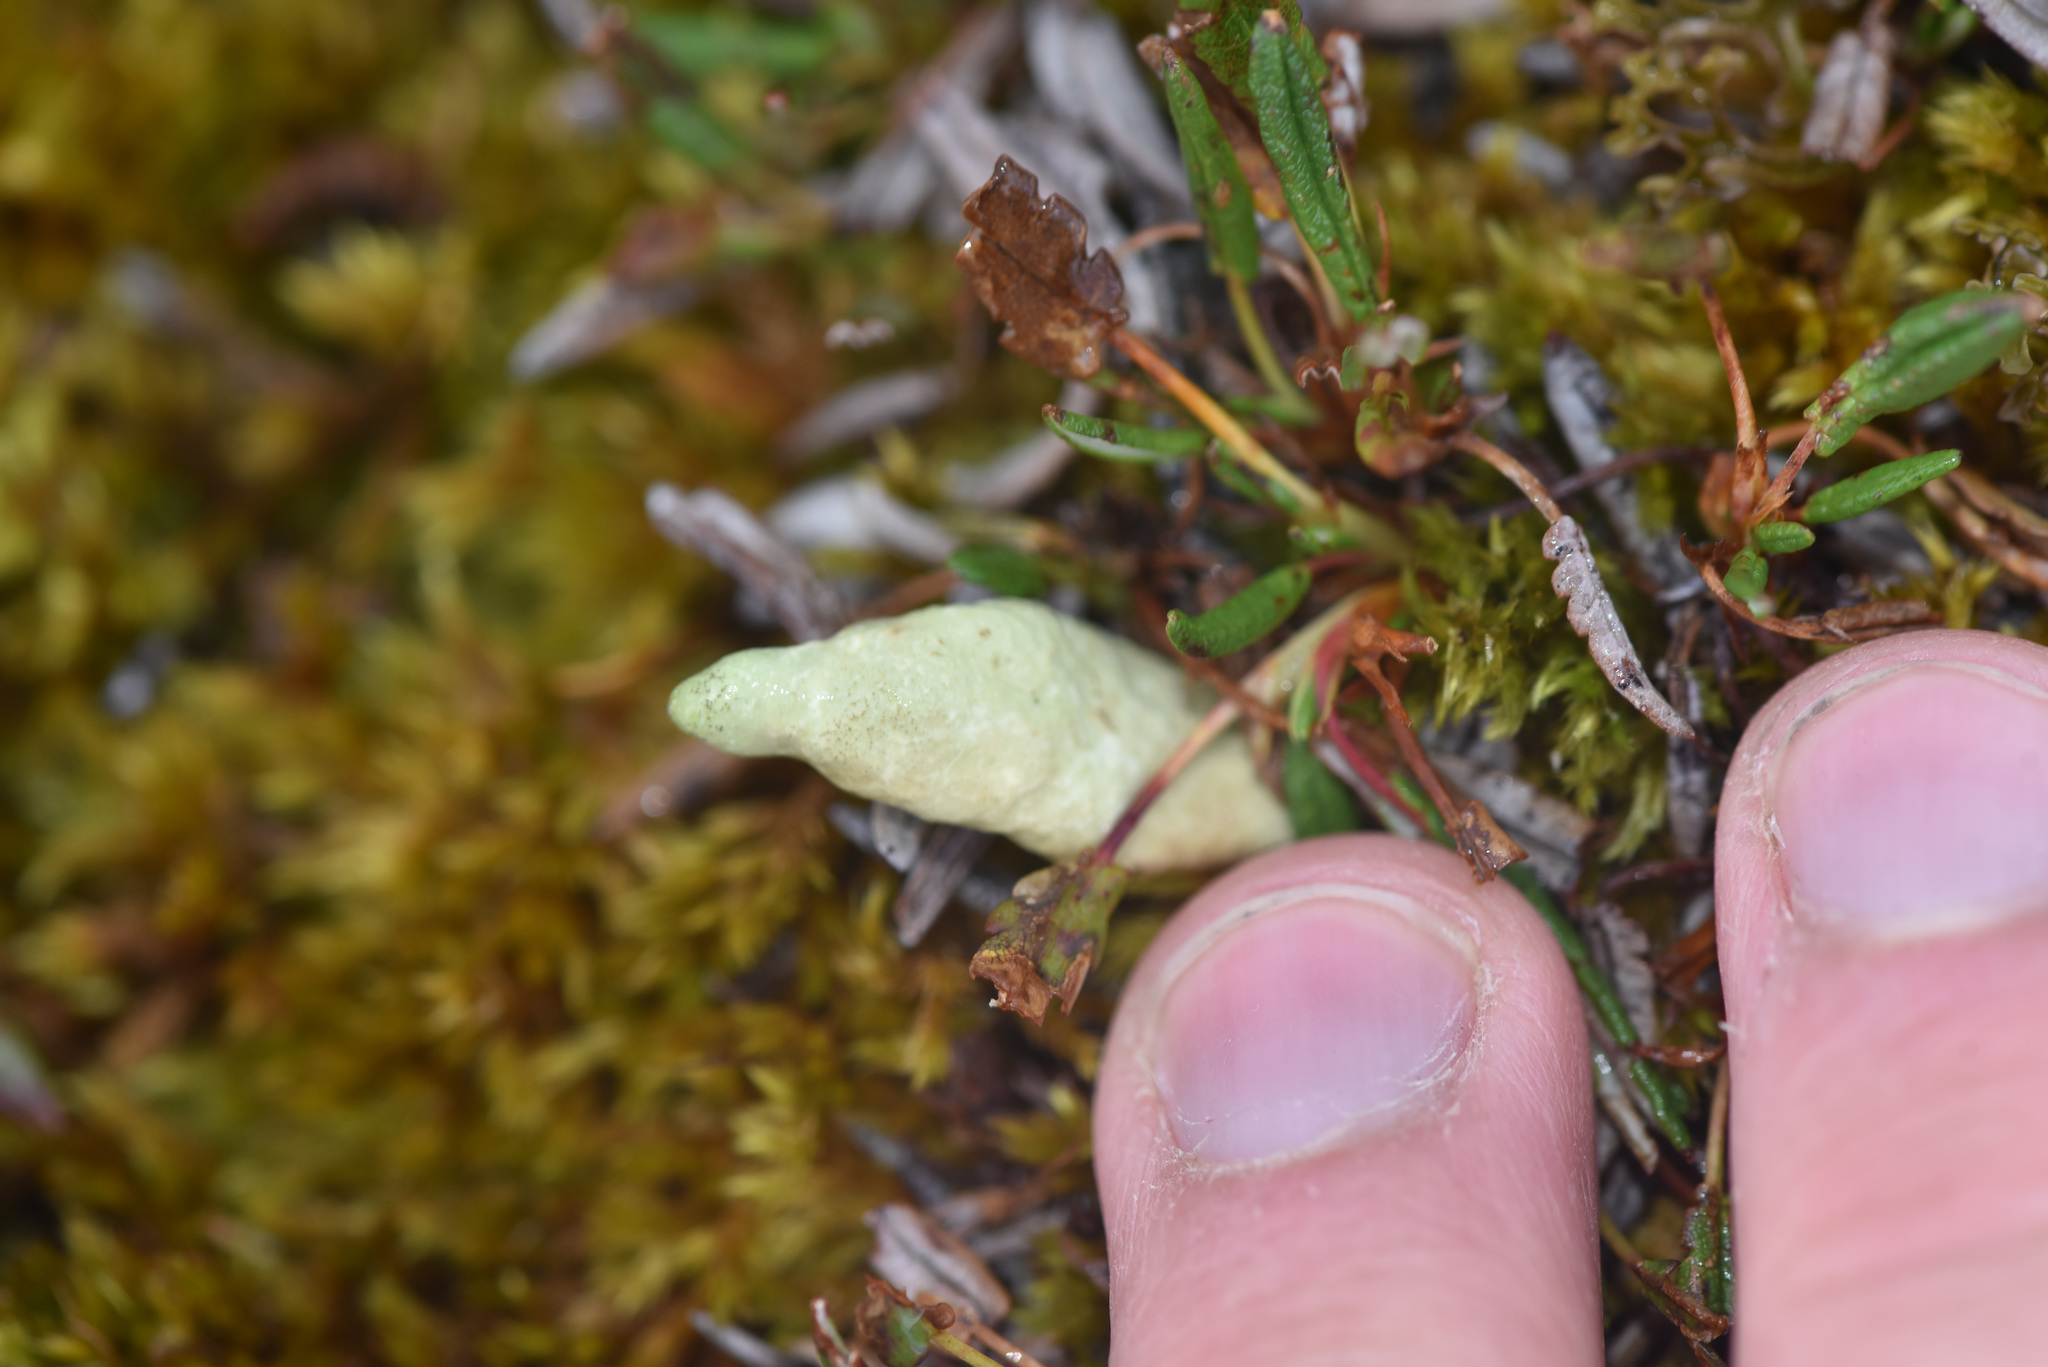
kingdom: Fungi
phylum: Ascomycota
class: Lecanoromycetes
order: Lecanorales
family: Parmeliaceae
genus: Dactylina
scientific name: Dactylina arctica
